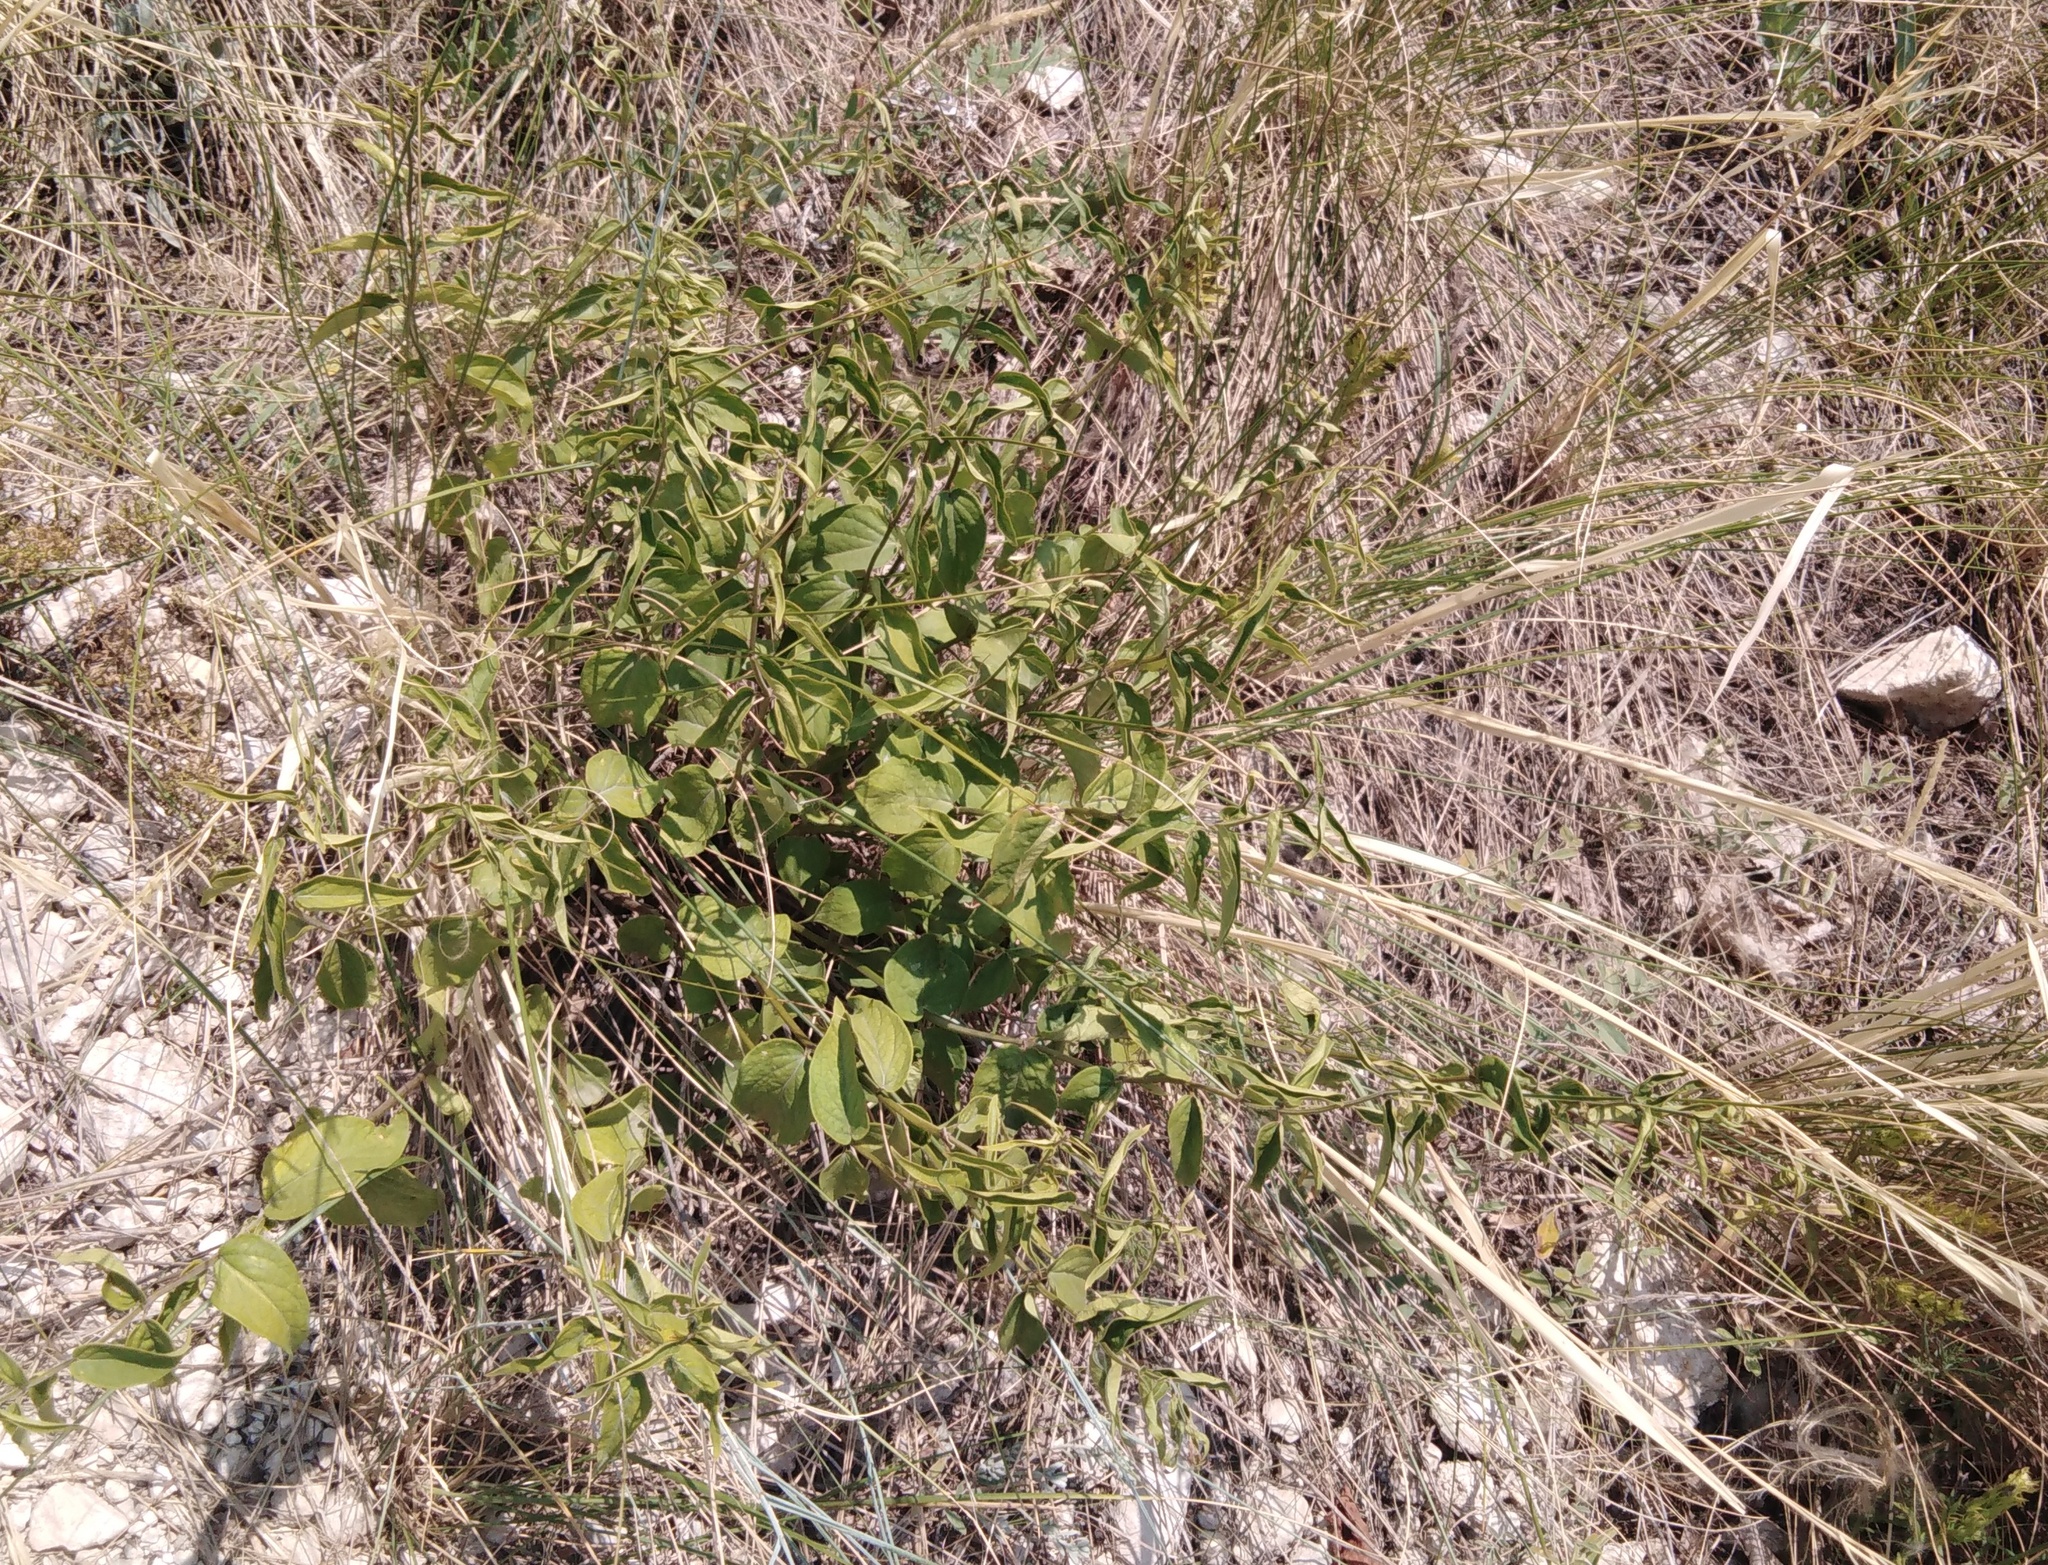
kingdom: Plantae
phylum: Tracheophyta
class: Magnoliopsida
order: Gentianales
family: Apocynaceae
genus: Vincetoxicum
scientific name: Vincetoxicum hirundinaria
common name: White swallowwort
